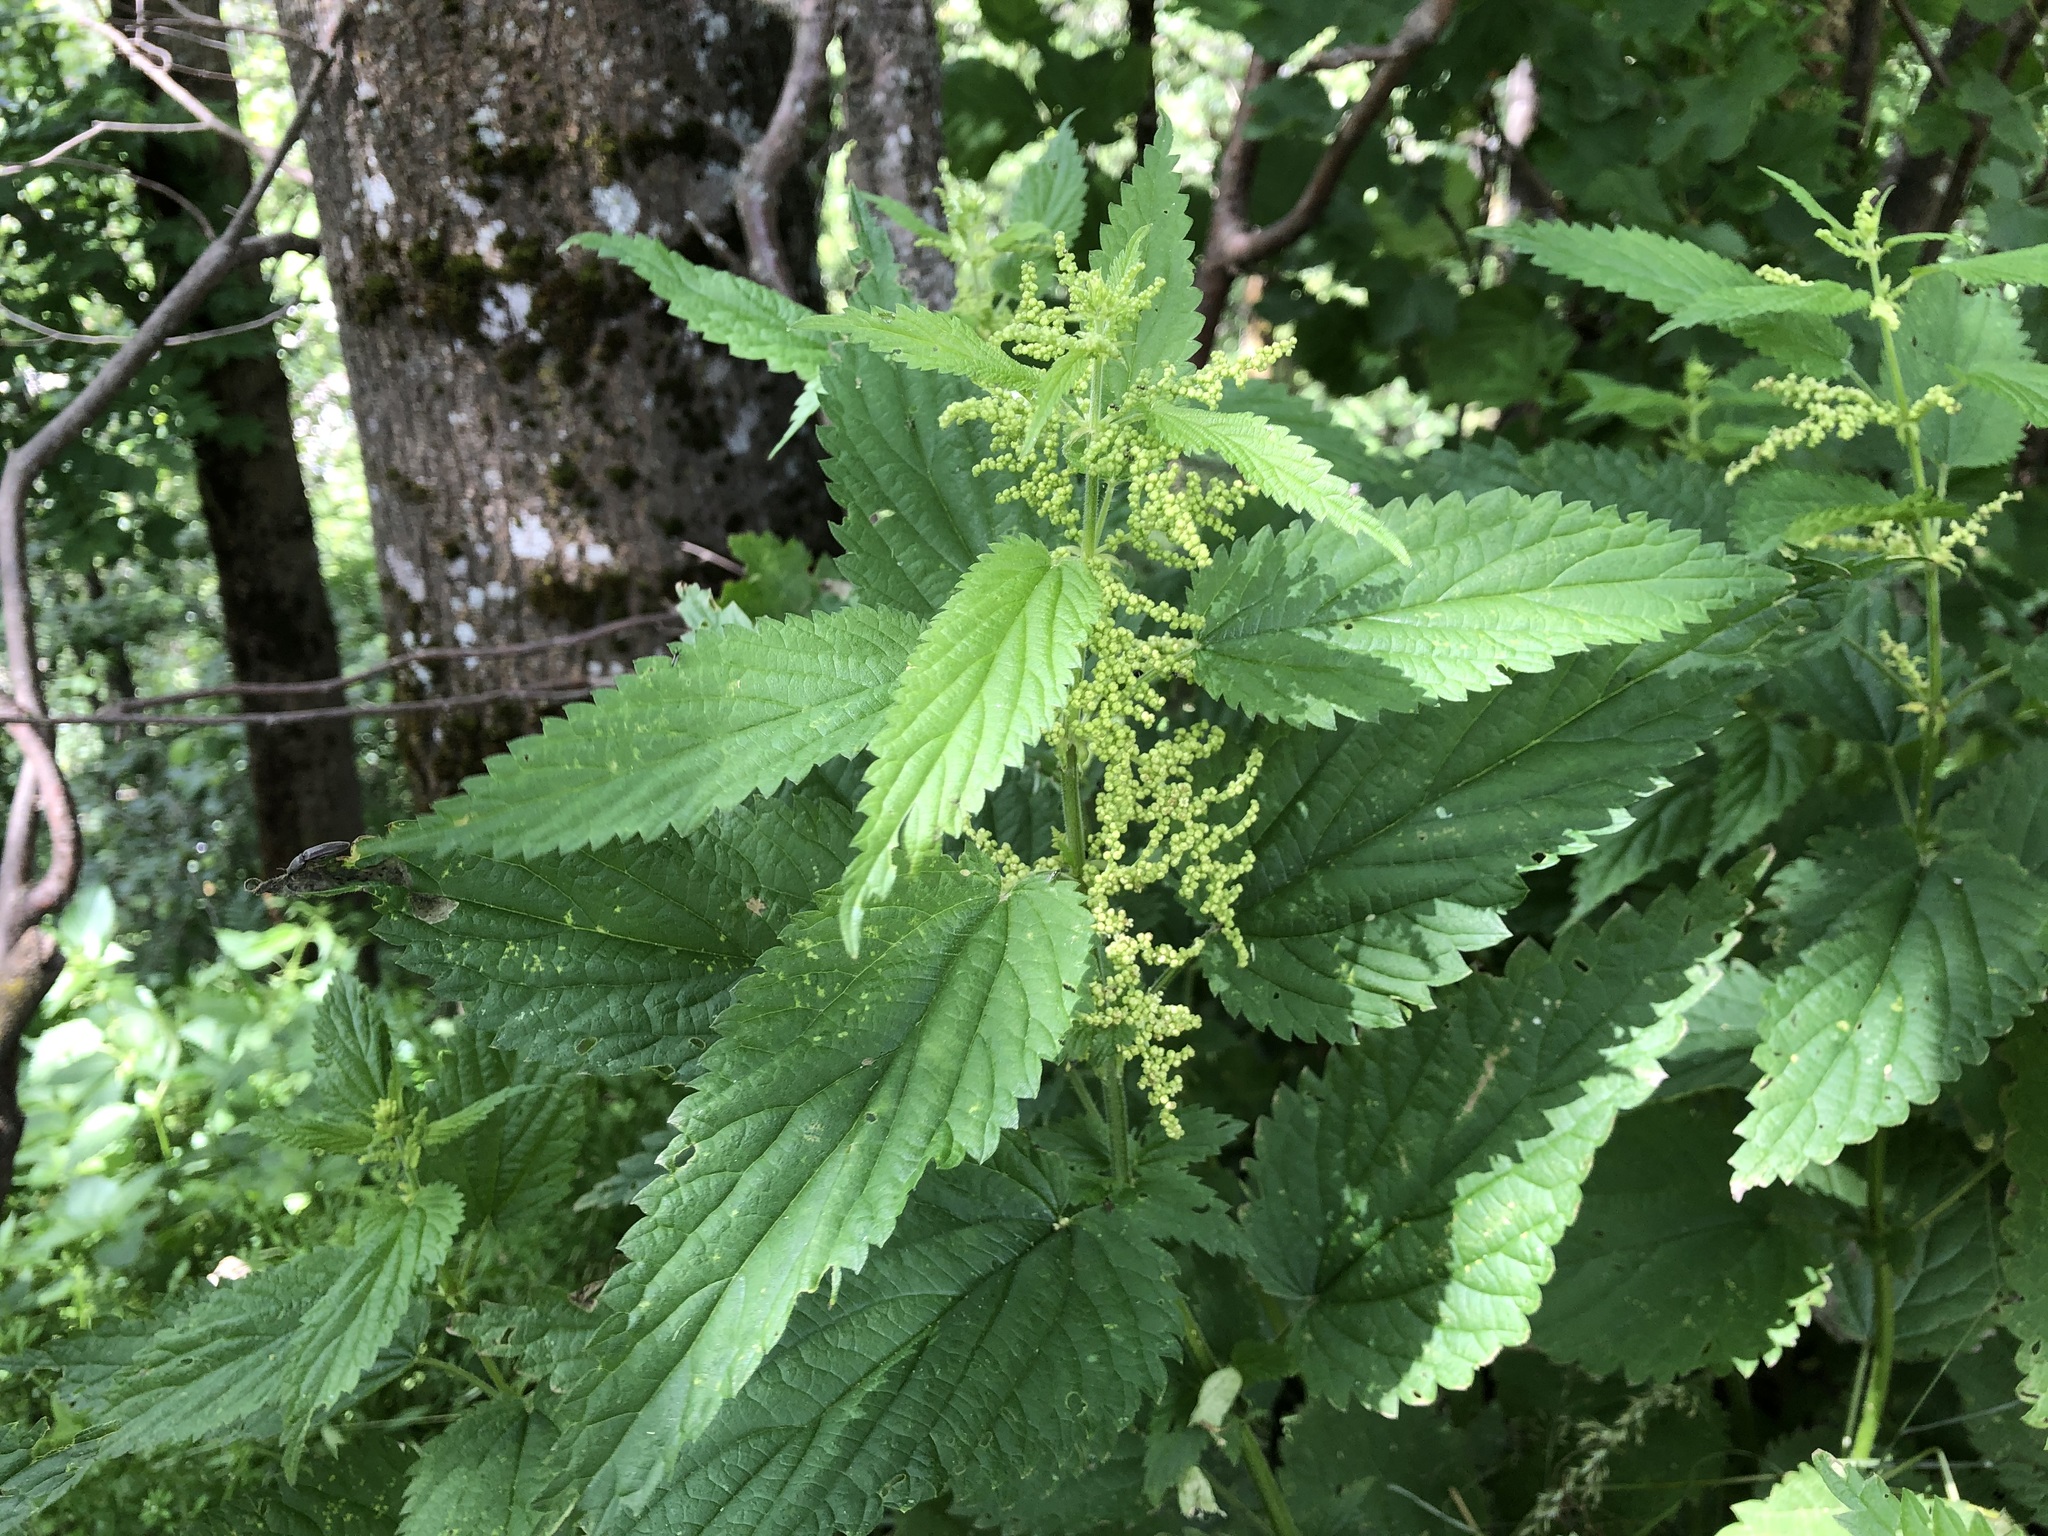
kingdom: Plantae
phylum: Tracheophyta
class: Magnoliopsida
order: Rosales
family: Urticaceae
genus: Urtica
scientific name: Urtica dioica
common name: Common nettle
